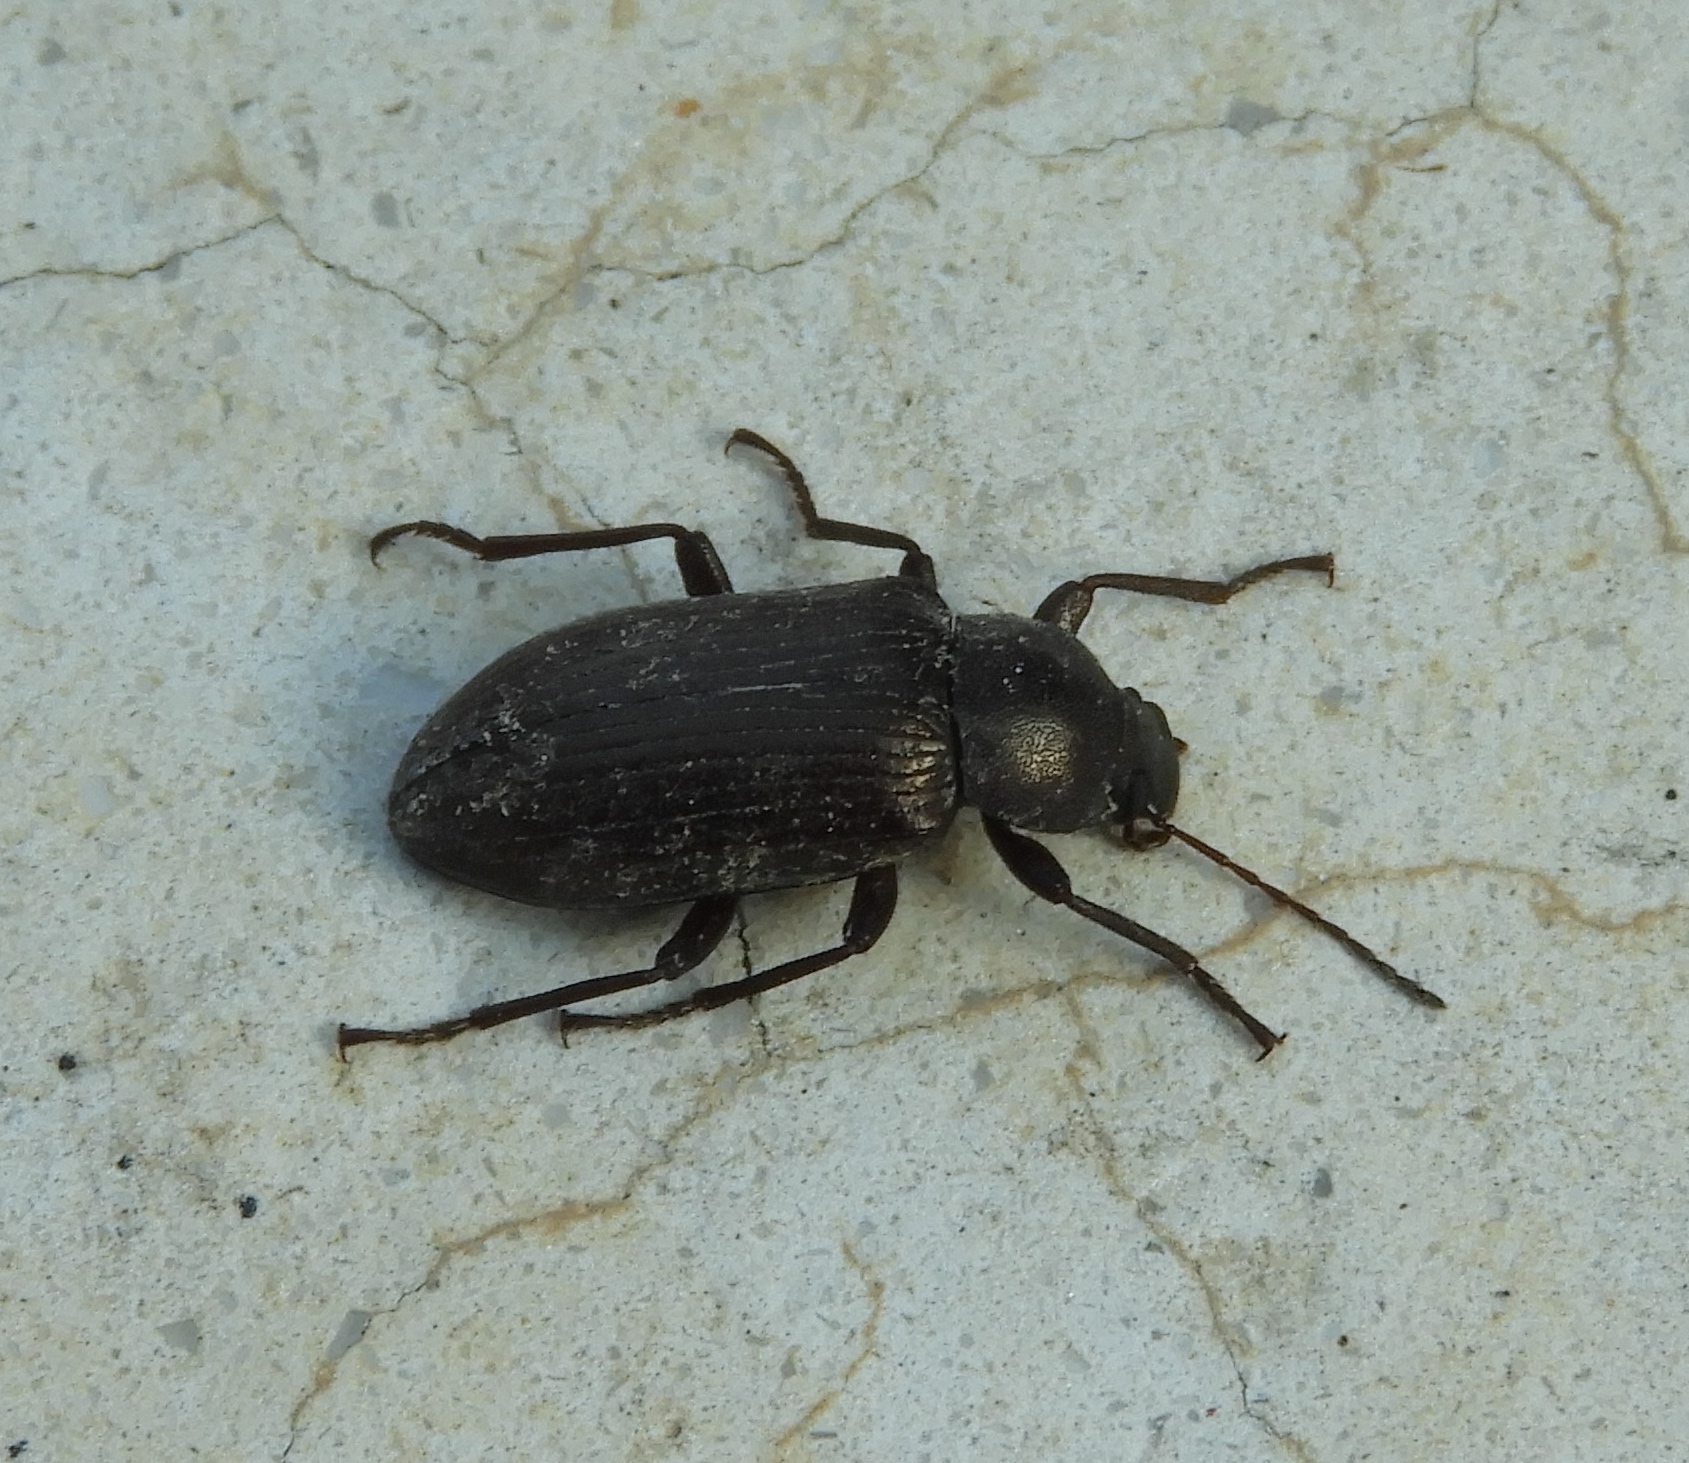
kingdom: Animalia
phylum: Arthropoda
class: Insecta
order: Coleoptera
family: Helopii
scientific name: Helopii
